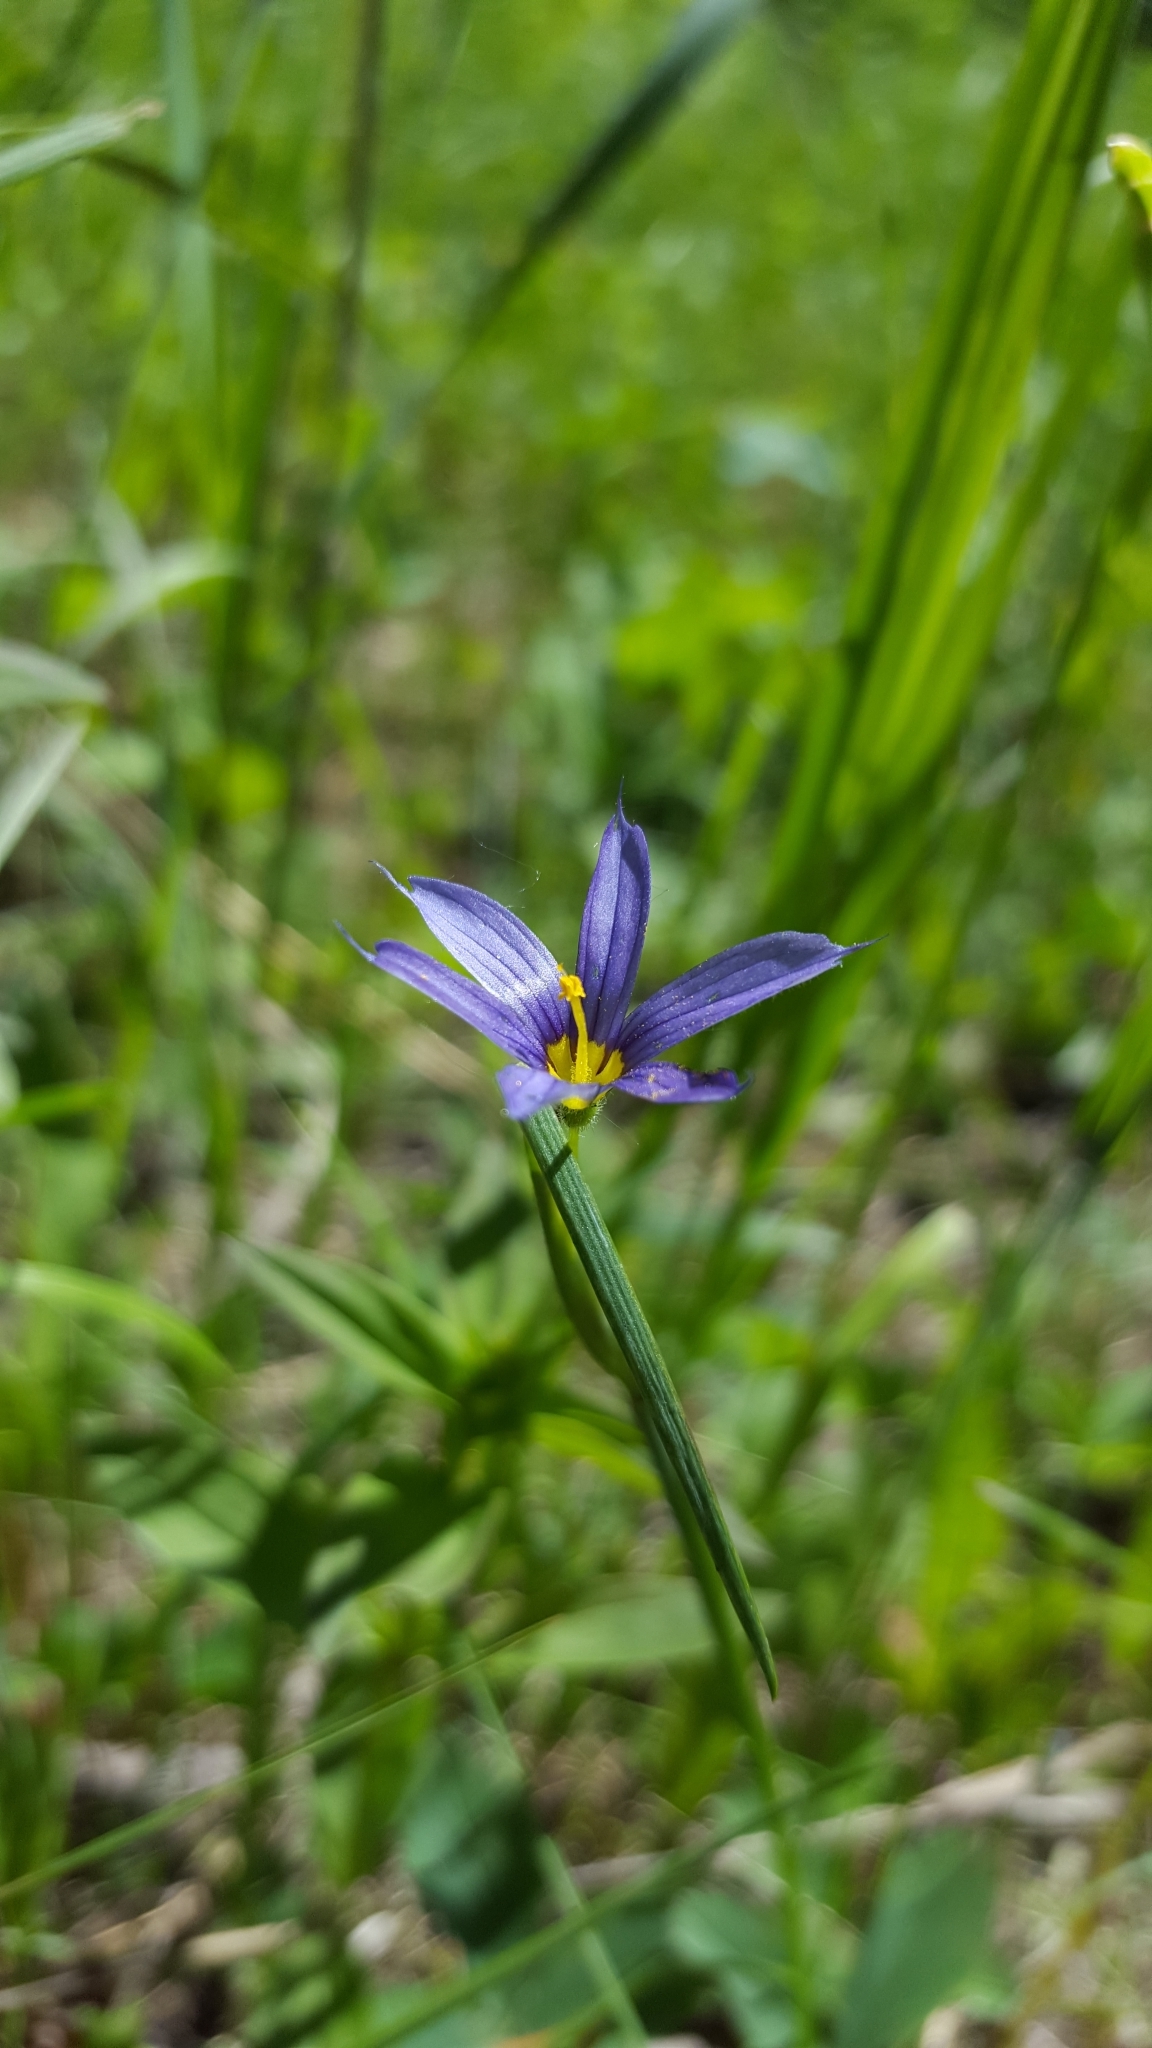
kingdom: Plantae
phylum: Tracheophyta
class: Liliopsida
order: Asparagales
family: Iridaceae
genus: Sisyrinchium
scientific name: Sisyrinchium montanum
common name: American blue-eyed-grass
